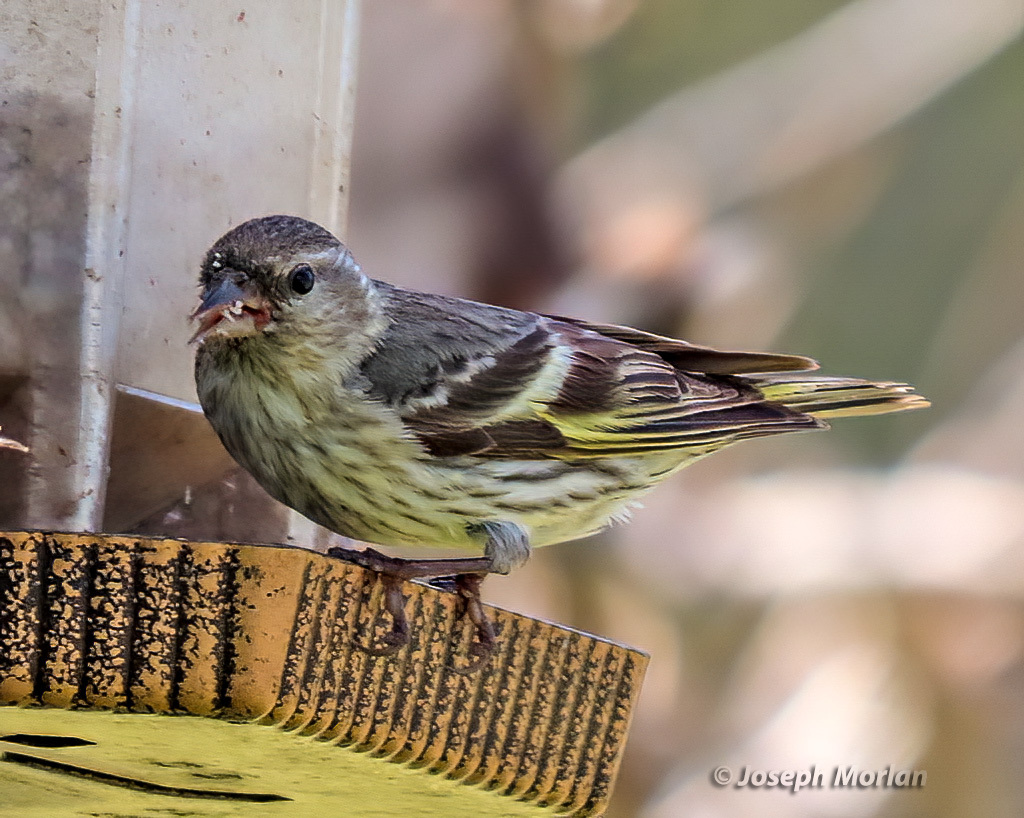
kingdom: Animalia
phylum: Chordata
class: Aves
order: Passeriformes
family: Fringillidae
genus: Spinus
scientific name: Spinus pinus
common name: Pine siskin
